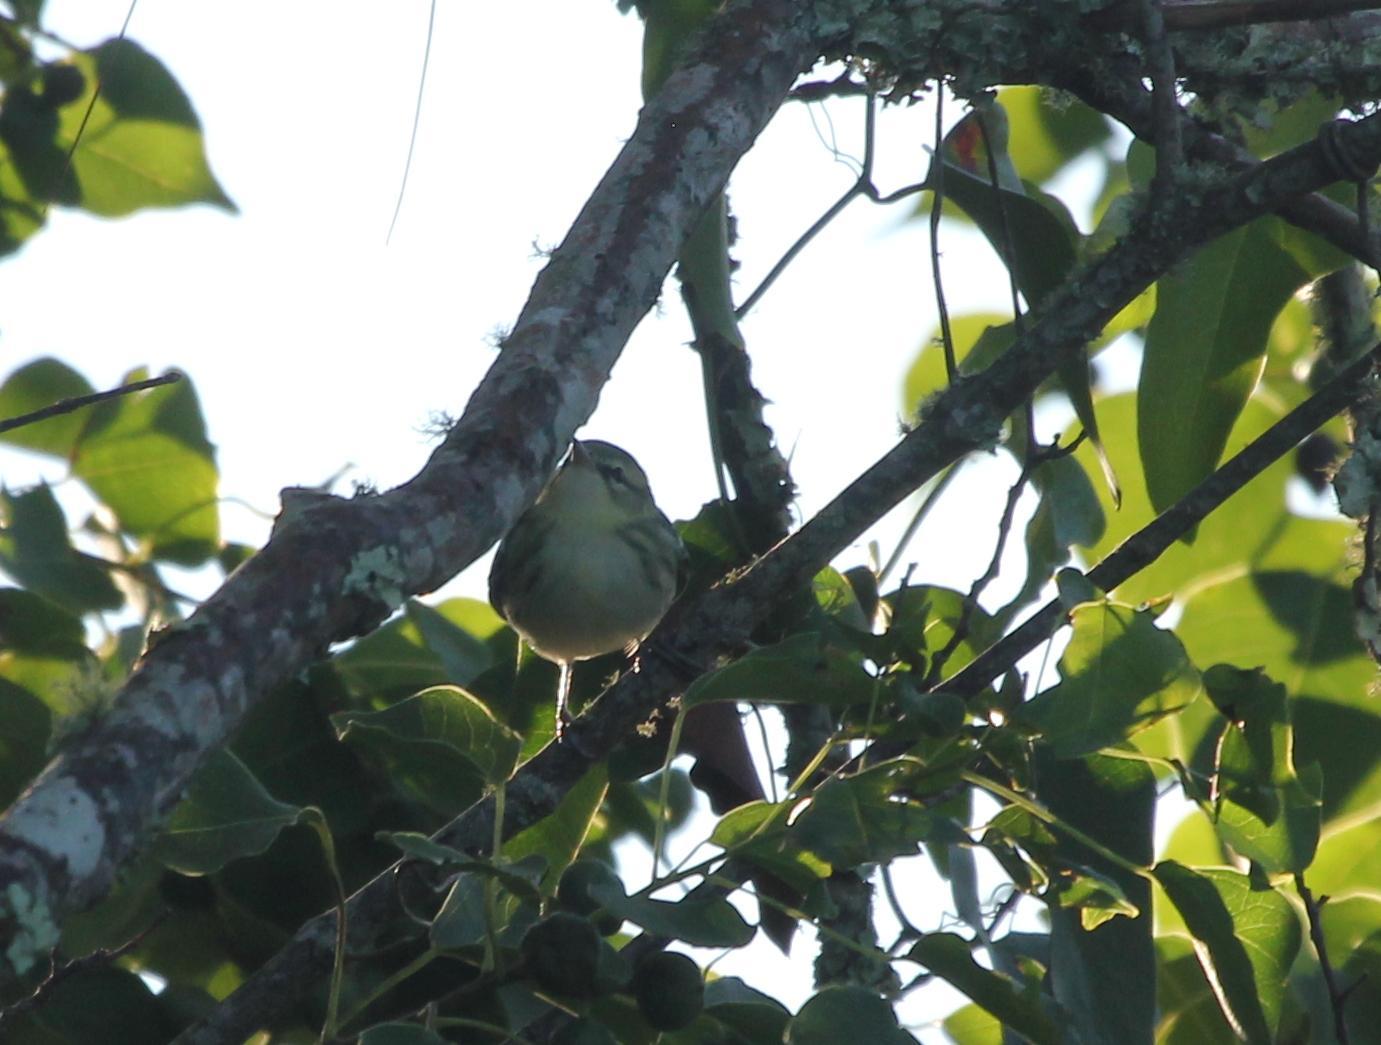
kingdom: Animalia
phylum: Chordata
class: Aves
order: Passeriformes
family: Parulidae
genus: Setophaga
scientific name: Setophaga cerulea
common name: Cerulean warbler
